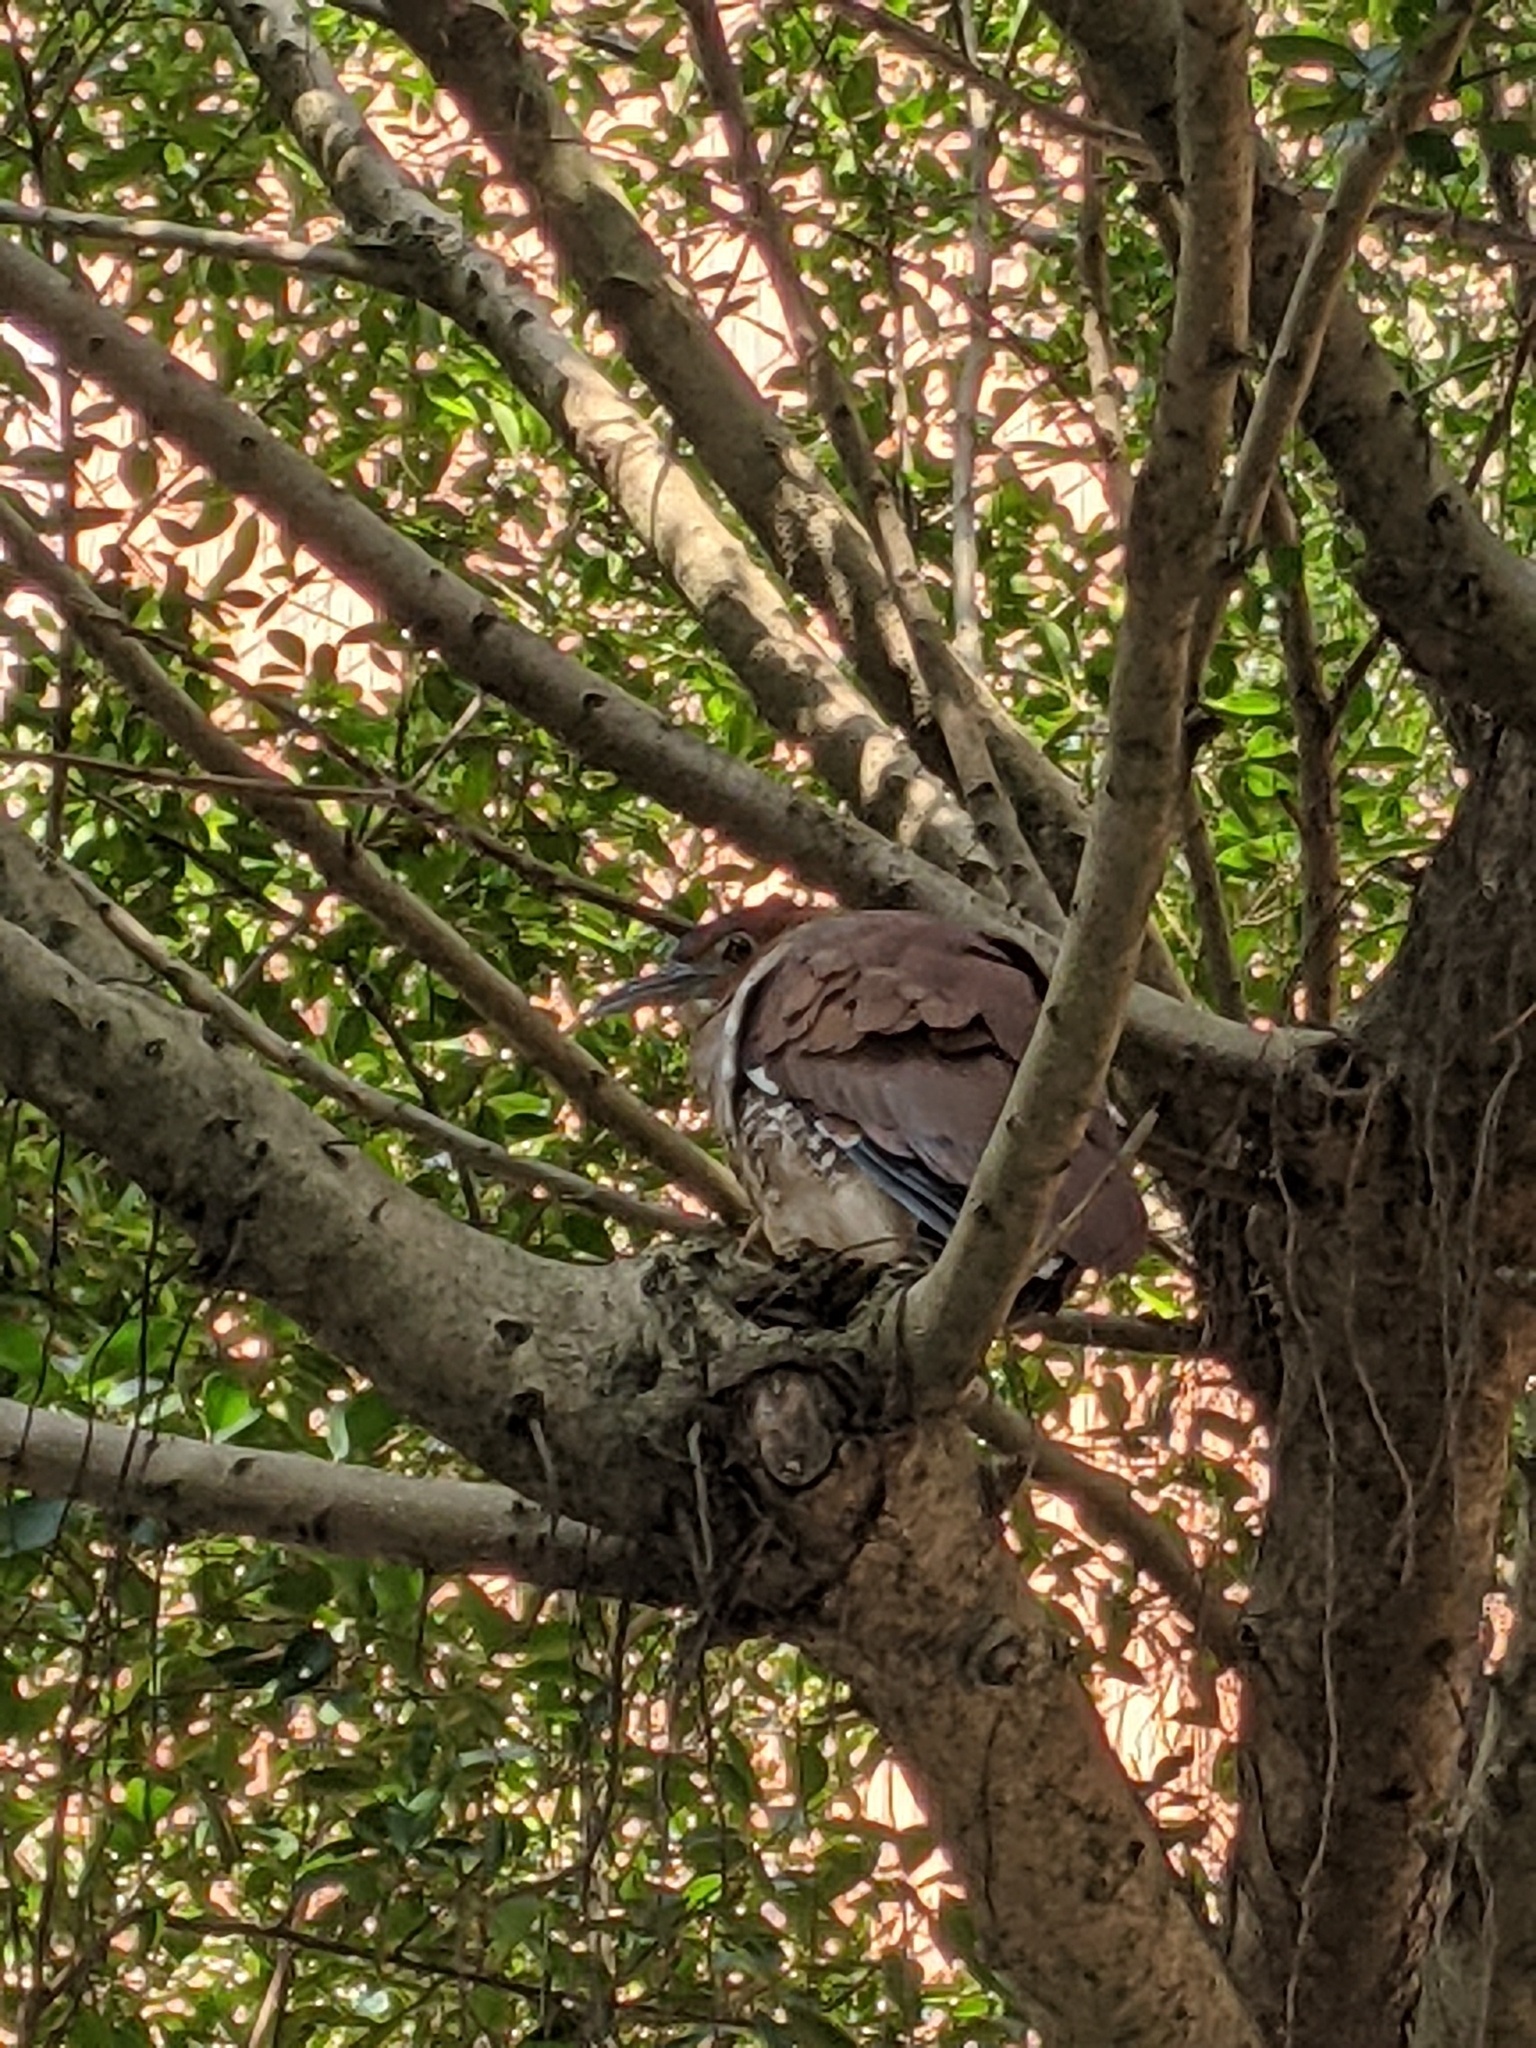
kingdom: Animalia
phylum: Chordata
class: Aves
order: Pelecaniformes
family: Ardeidae
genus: Gorsachius
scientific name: Gorsachius melanolophus
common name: Malayan night heron
